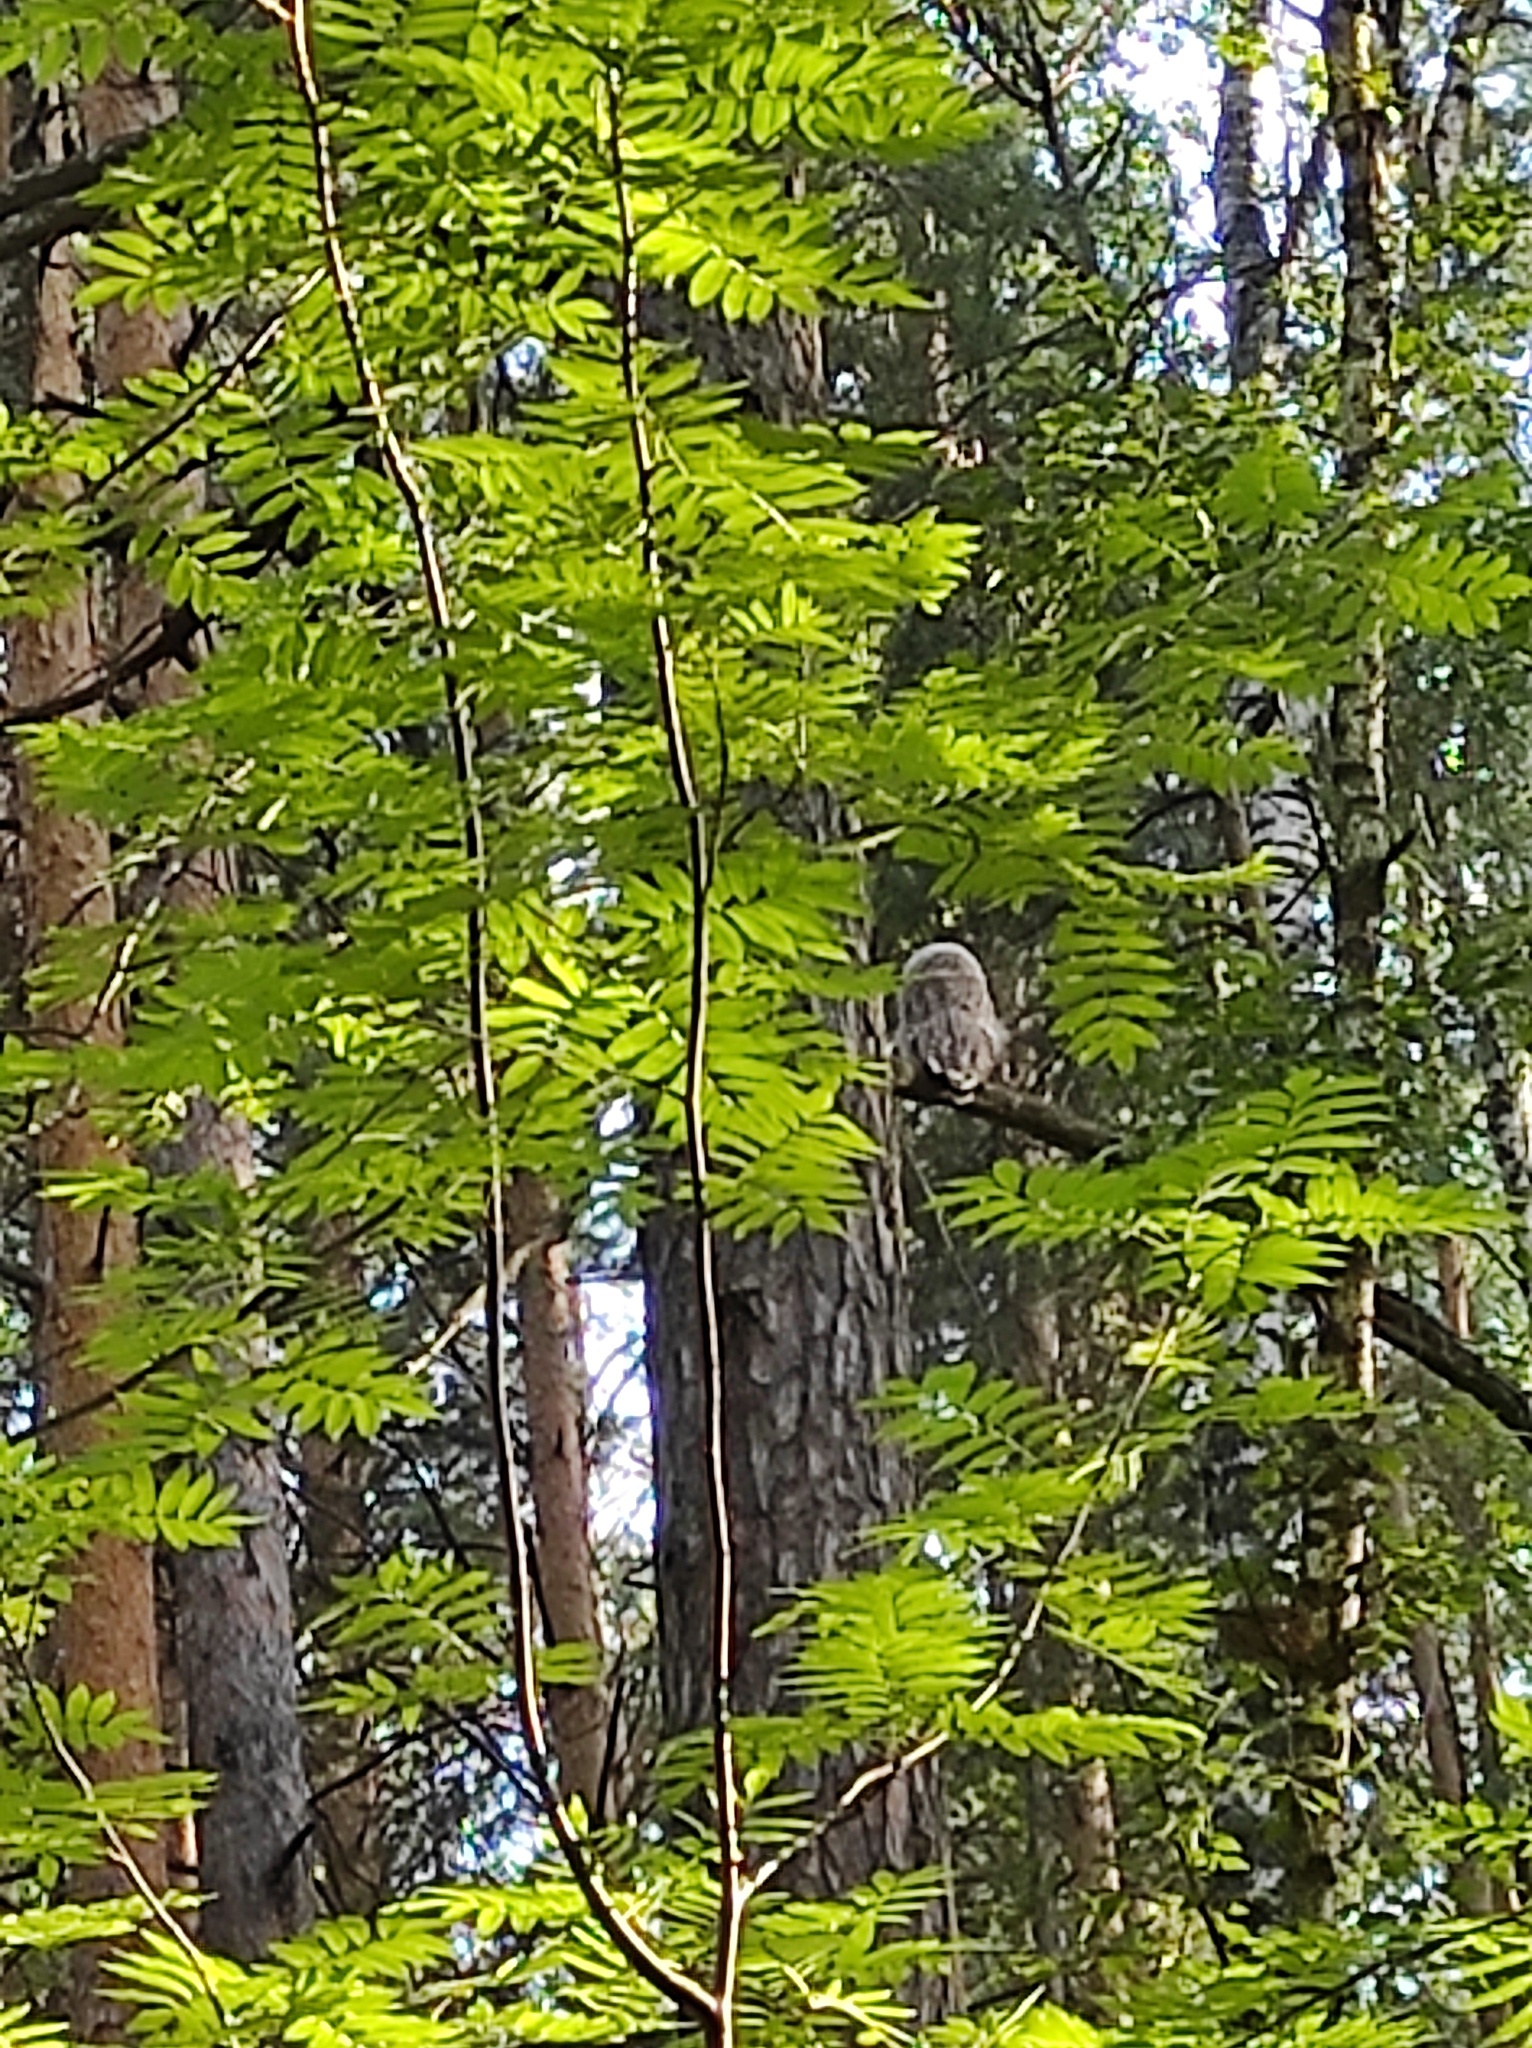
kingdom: Animalia
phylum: Chordata
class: Aves
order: Strigiformes
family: Strigidae
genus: Strix
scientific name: Strix uralensis
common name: Ural owl
